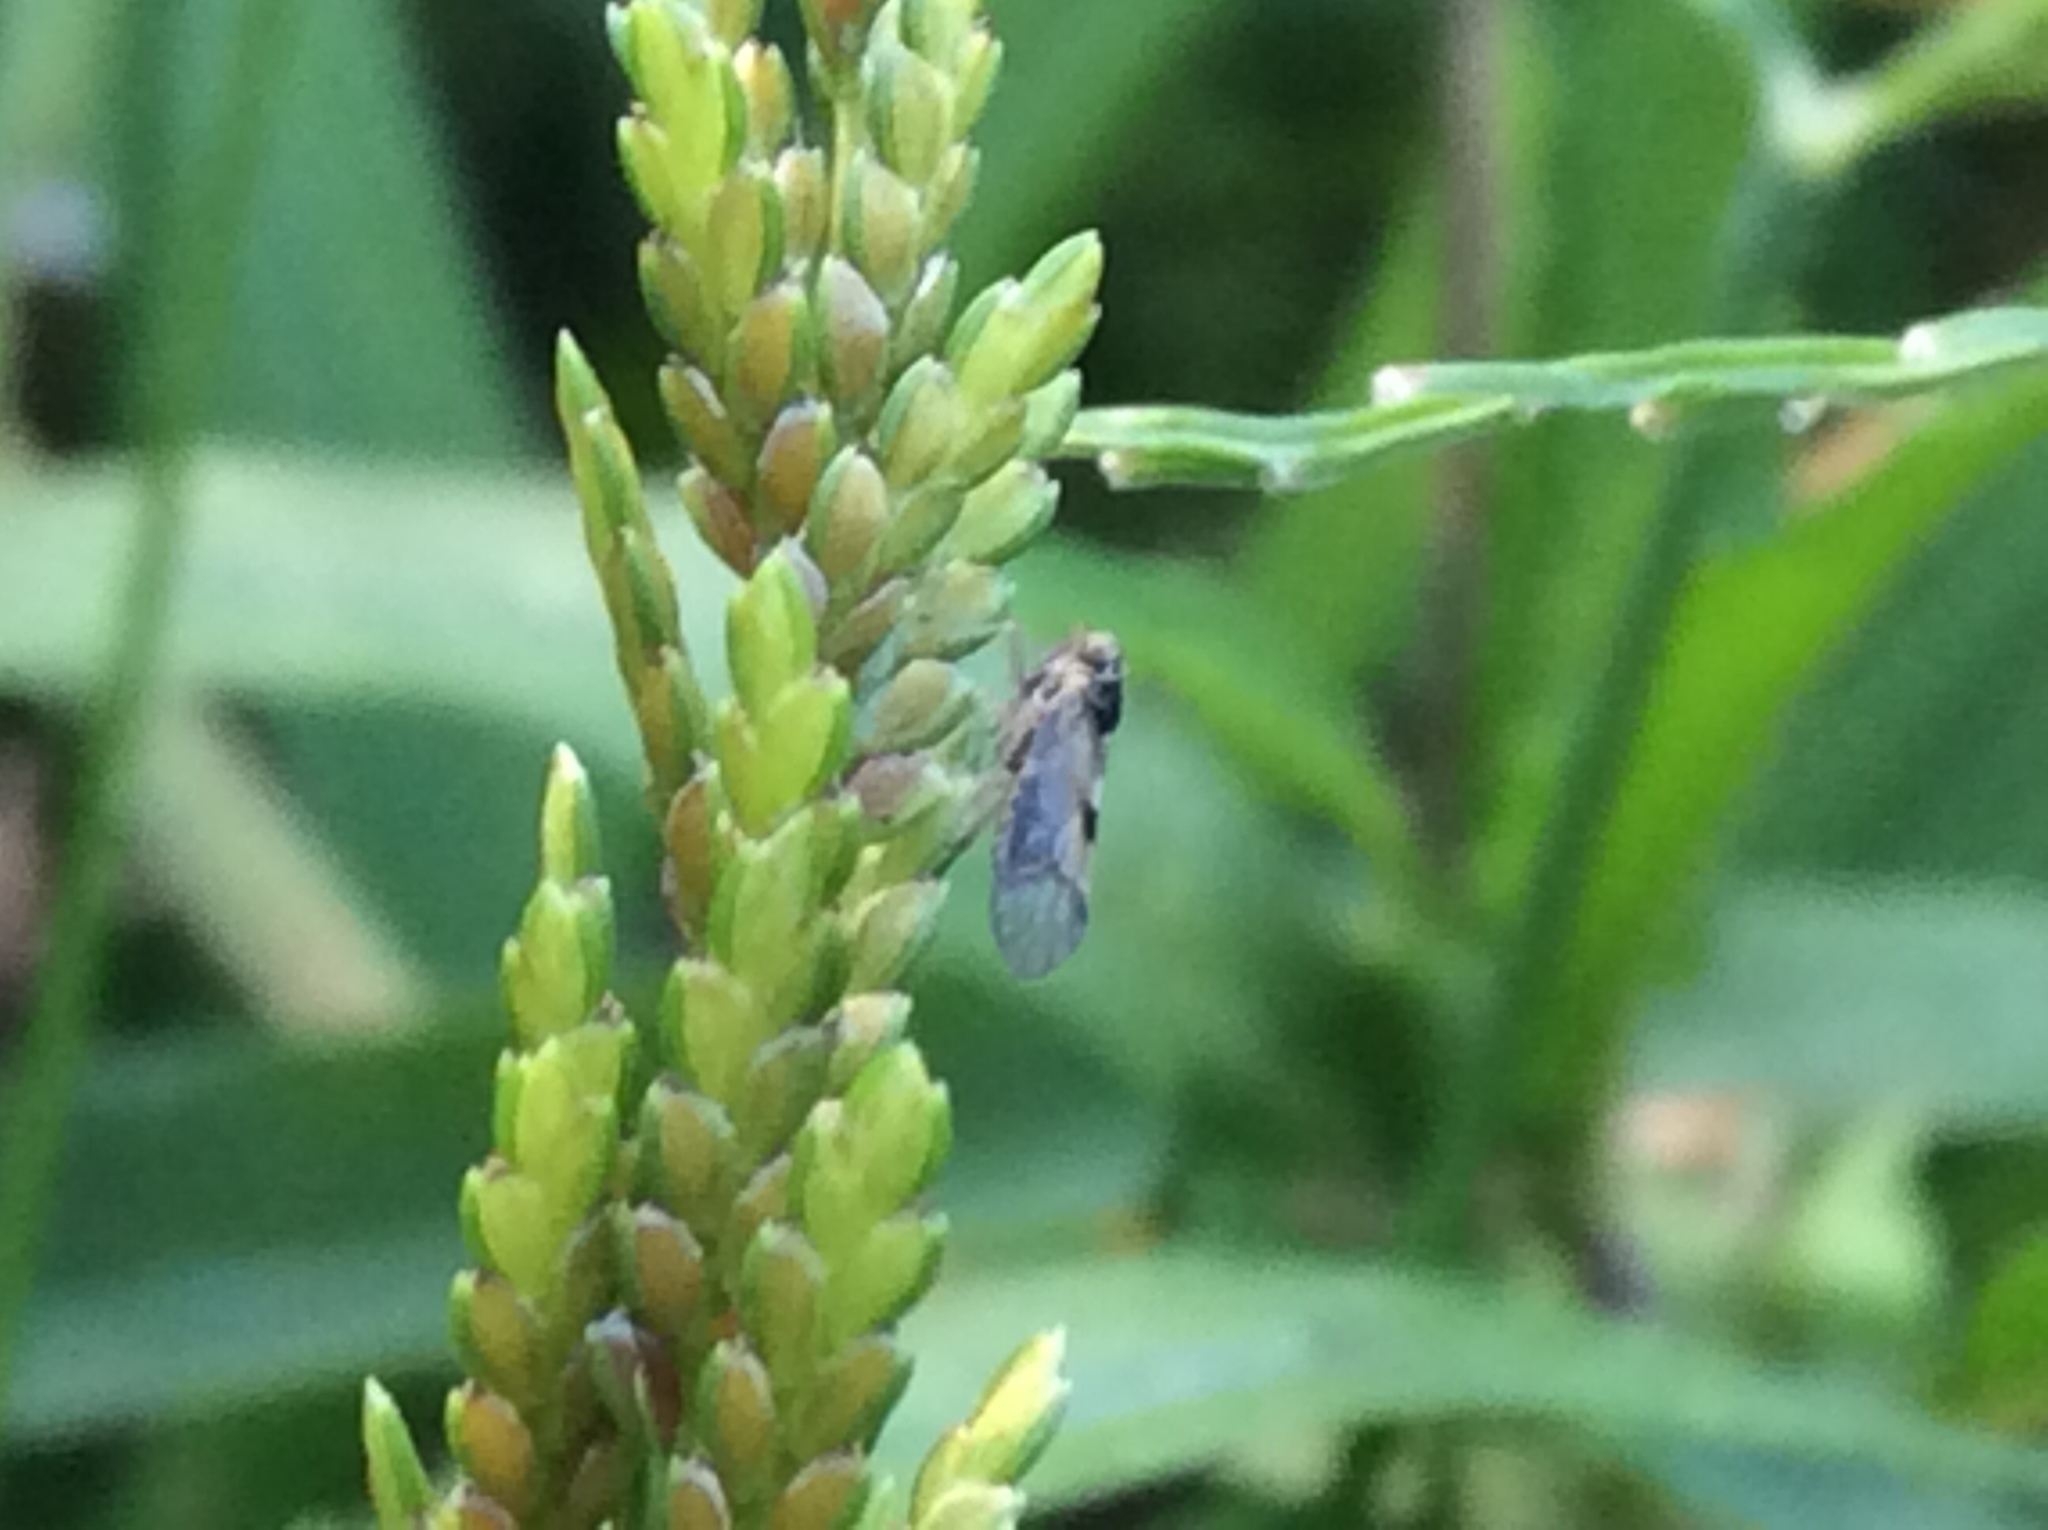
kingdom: Animalia
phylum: Arthropoda
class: Insecta
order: Hemiptera
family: Delphacidae
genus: Chionomus
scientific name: Chionomus
